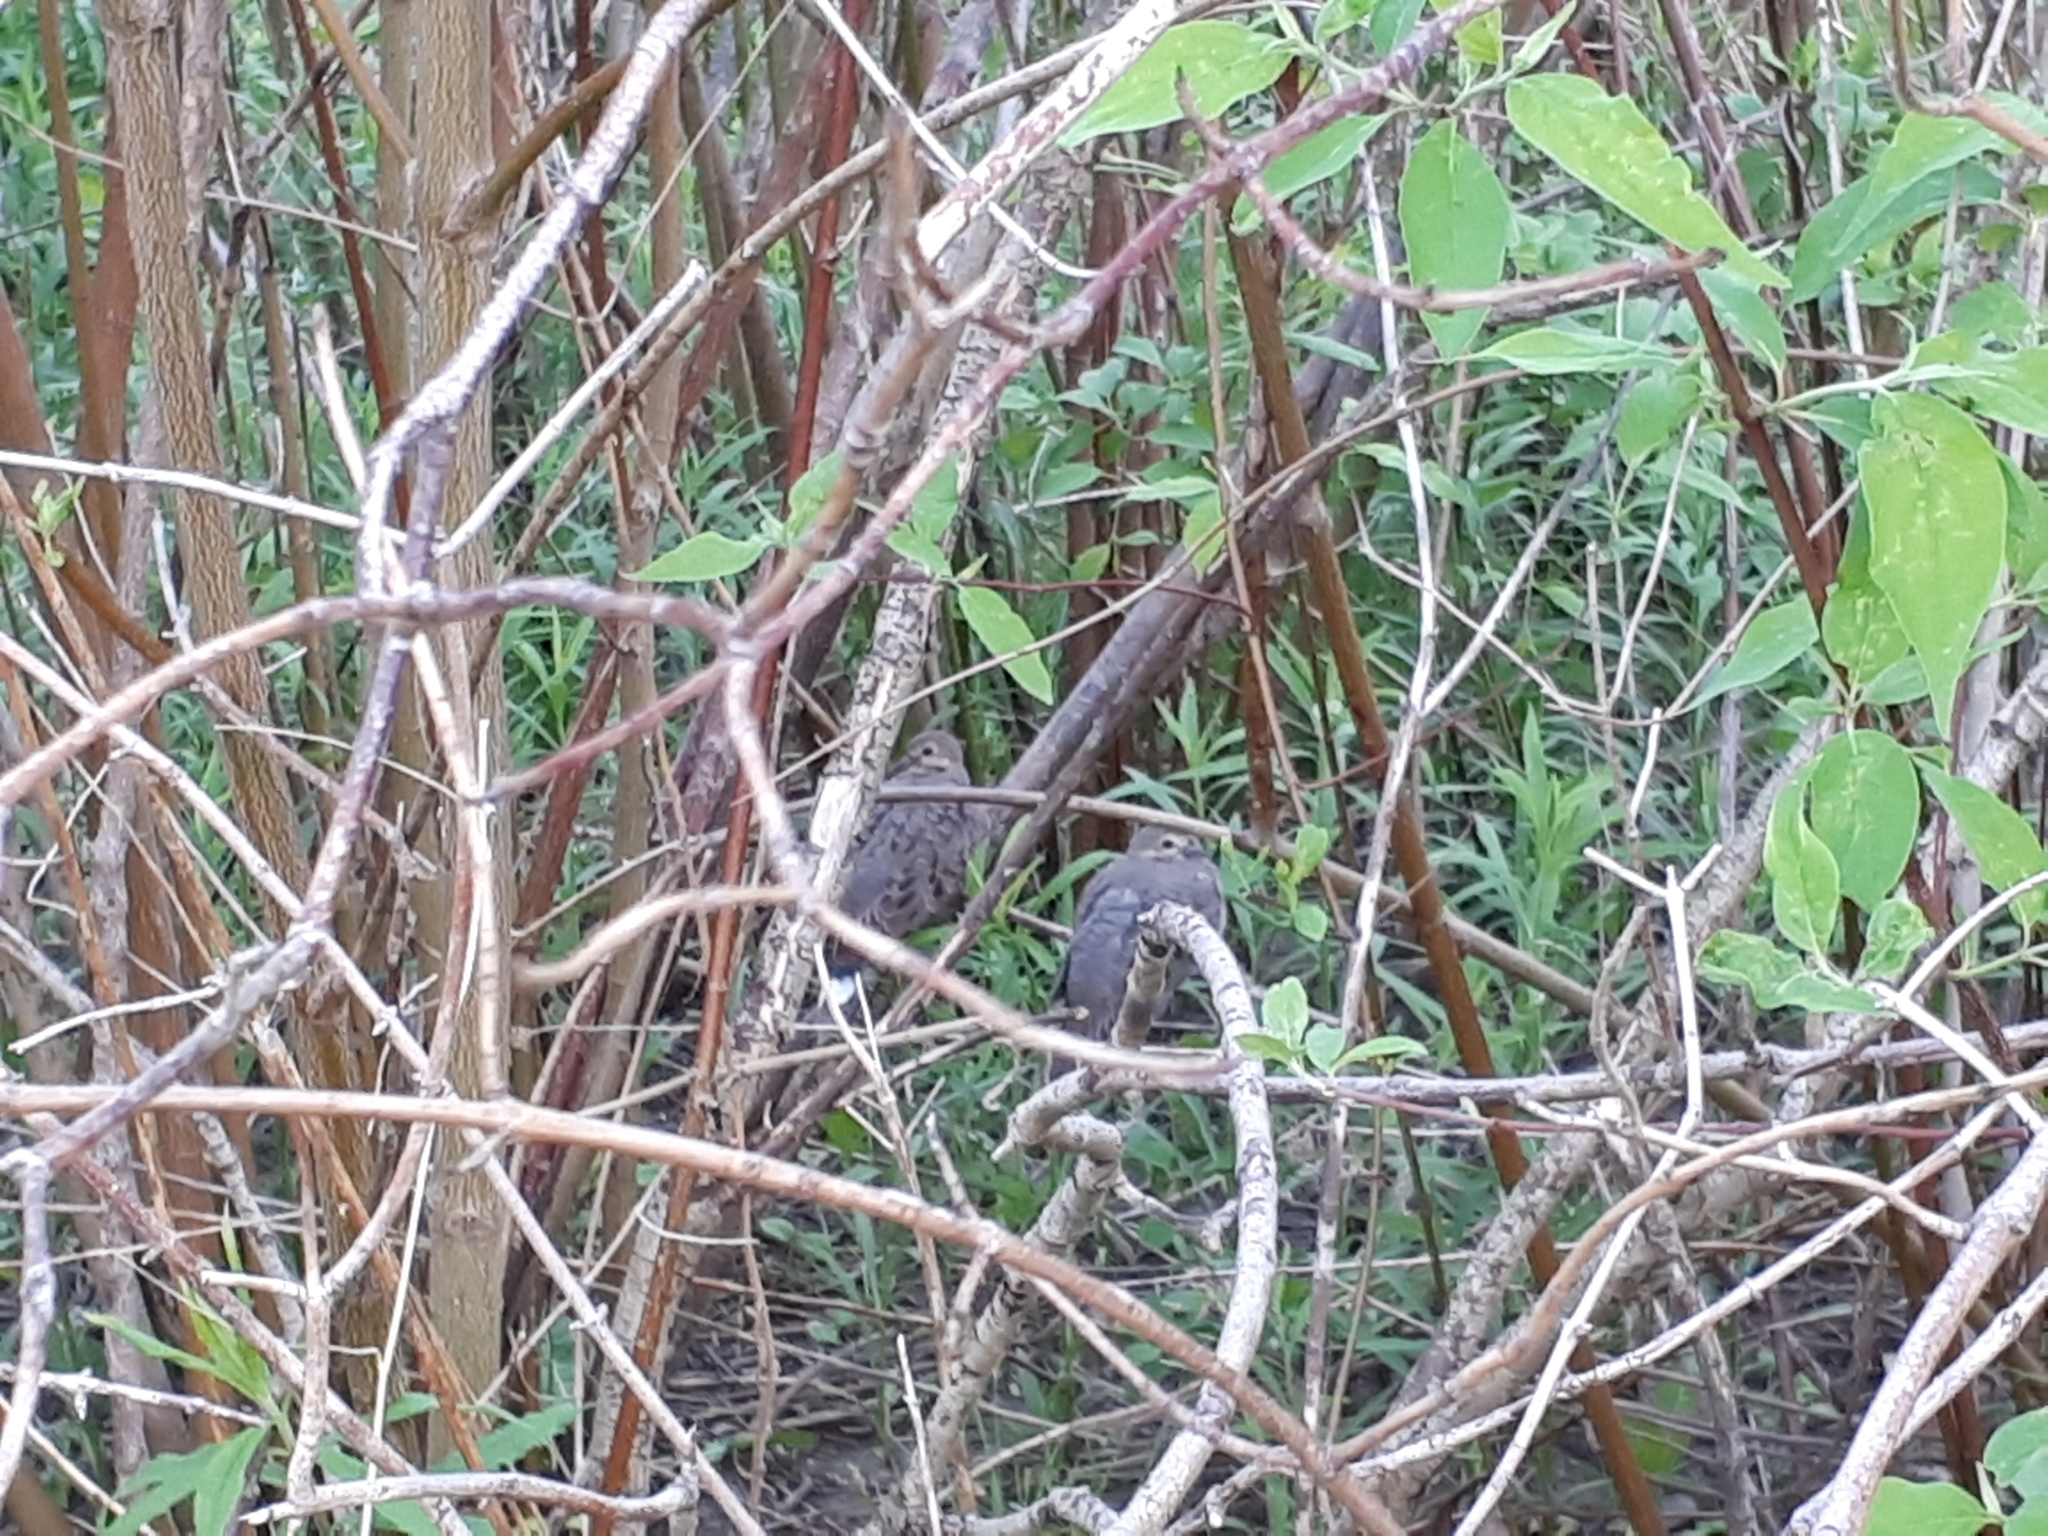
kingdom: Animalia
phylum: Chordata
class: Aves
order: Columbiformes
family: Columbidae
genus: Zenaida
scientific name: Zenaida macroura
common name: Mourning dove
